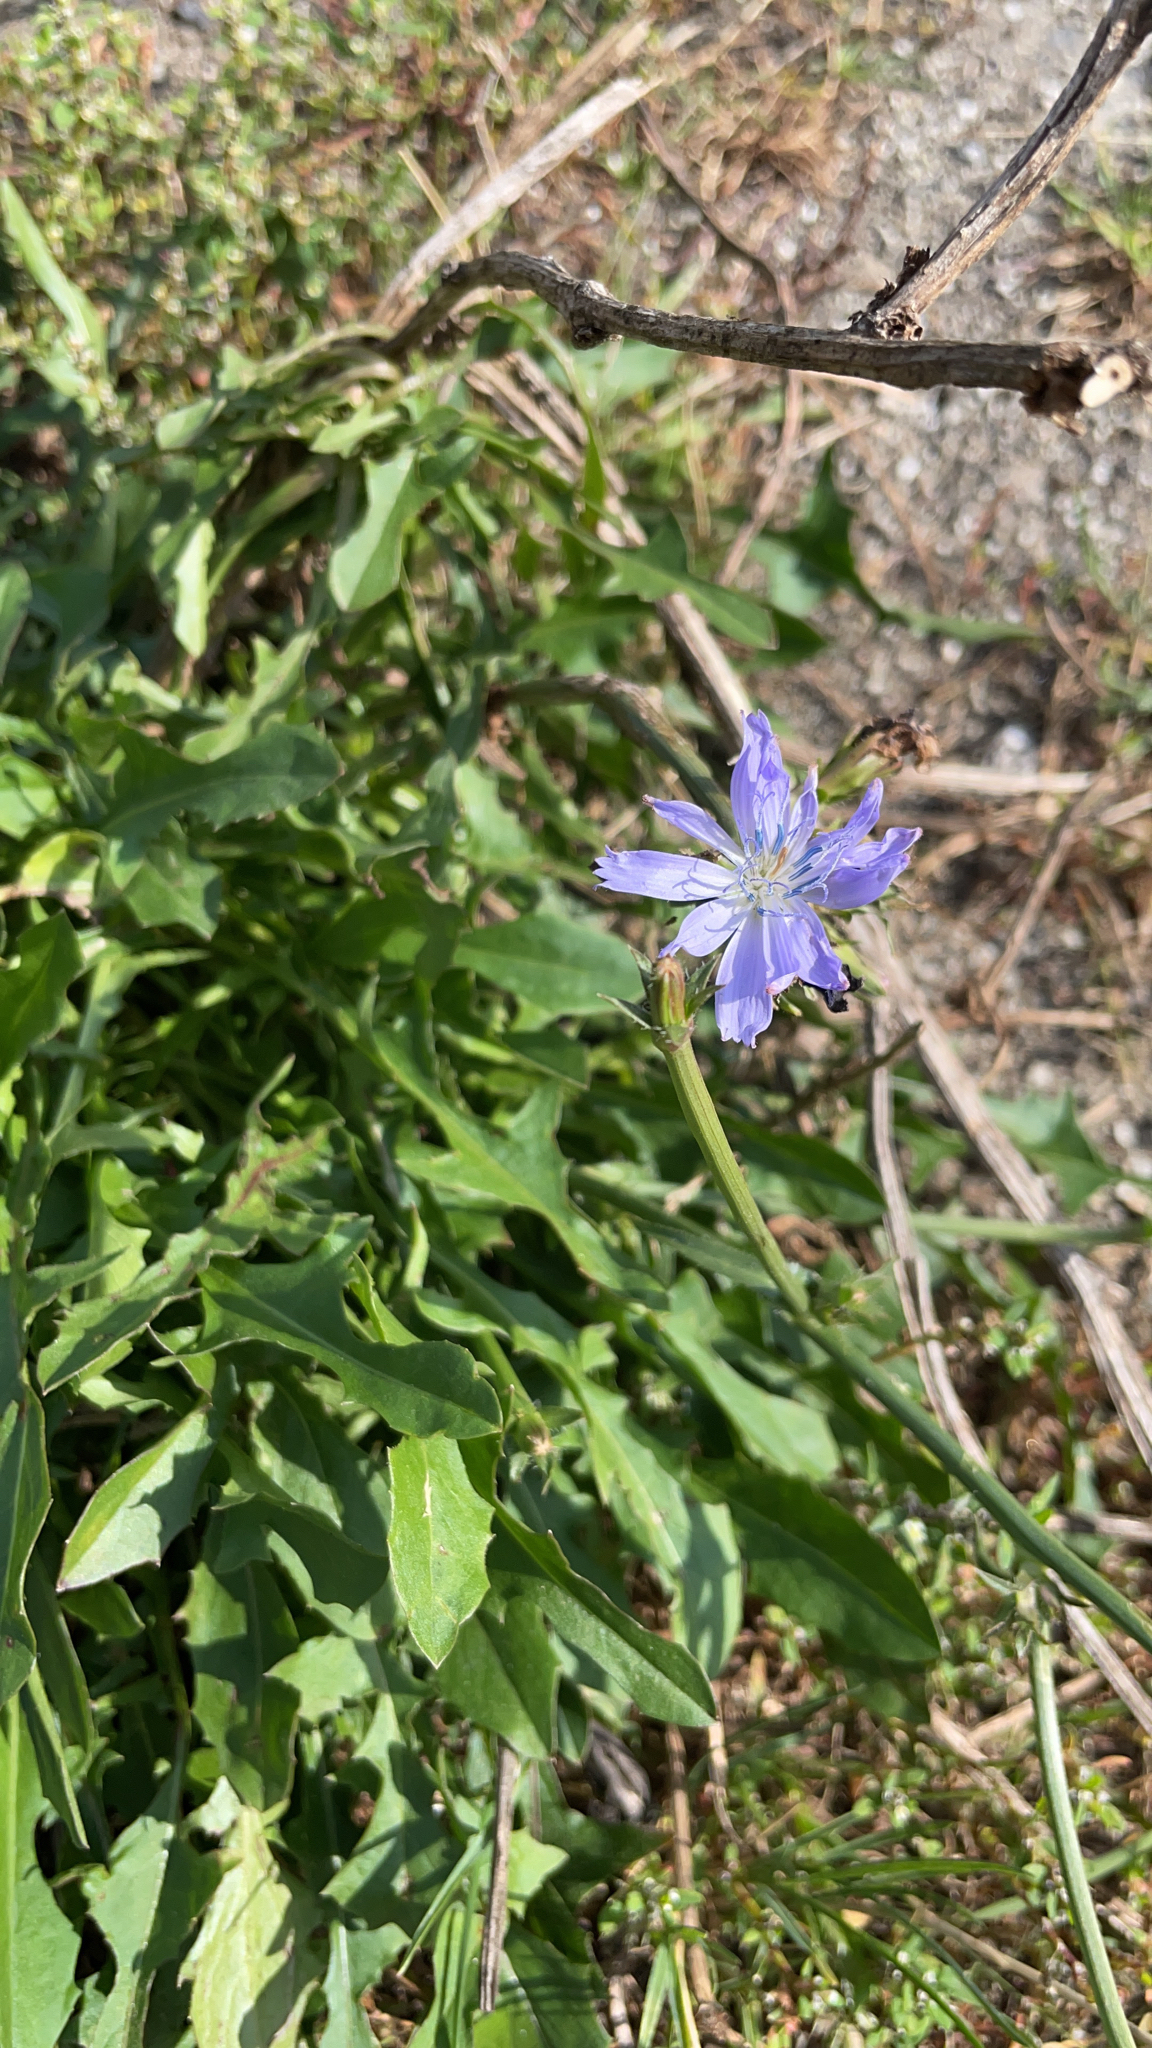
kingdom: Plantae
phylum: Tracheophyta
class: Magnoliopsida
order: Asterales
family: Asteraceae
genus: Cichorium
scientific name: Cichorium intybus
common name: Chicory
